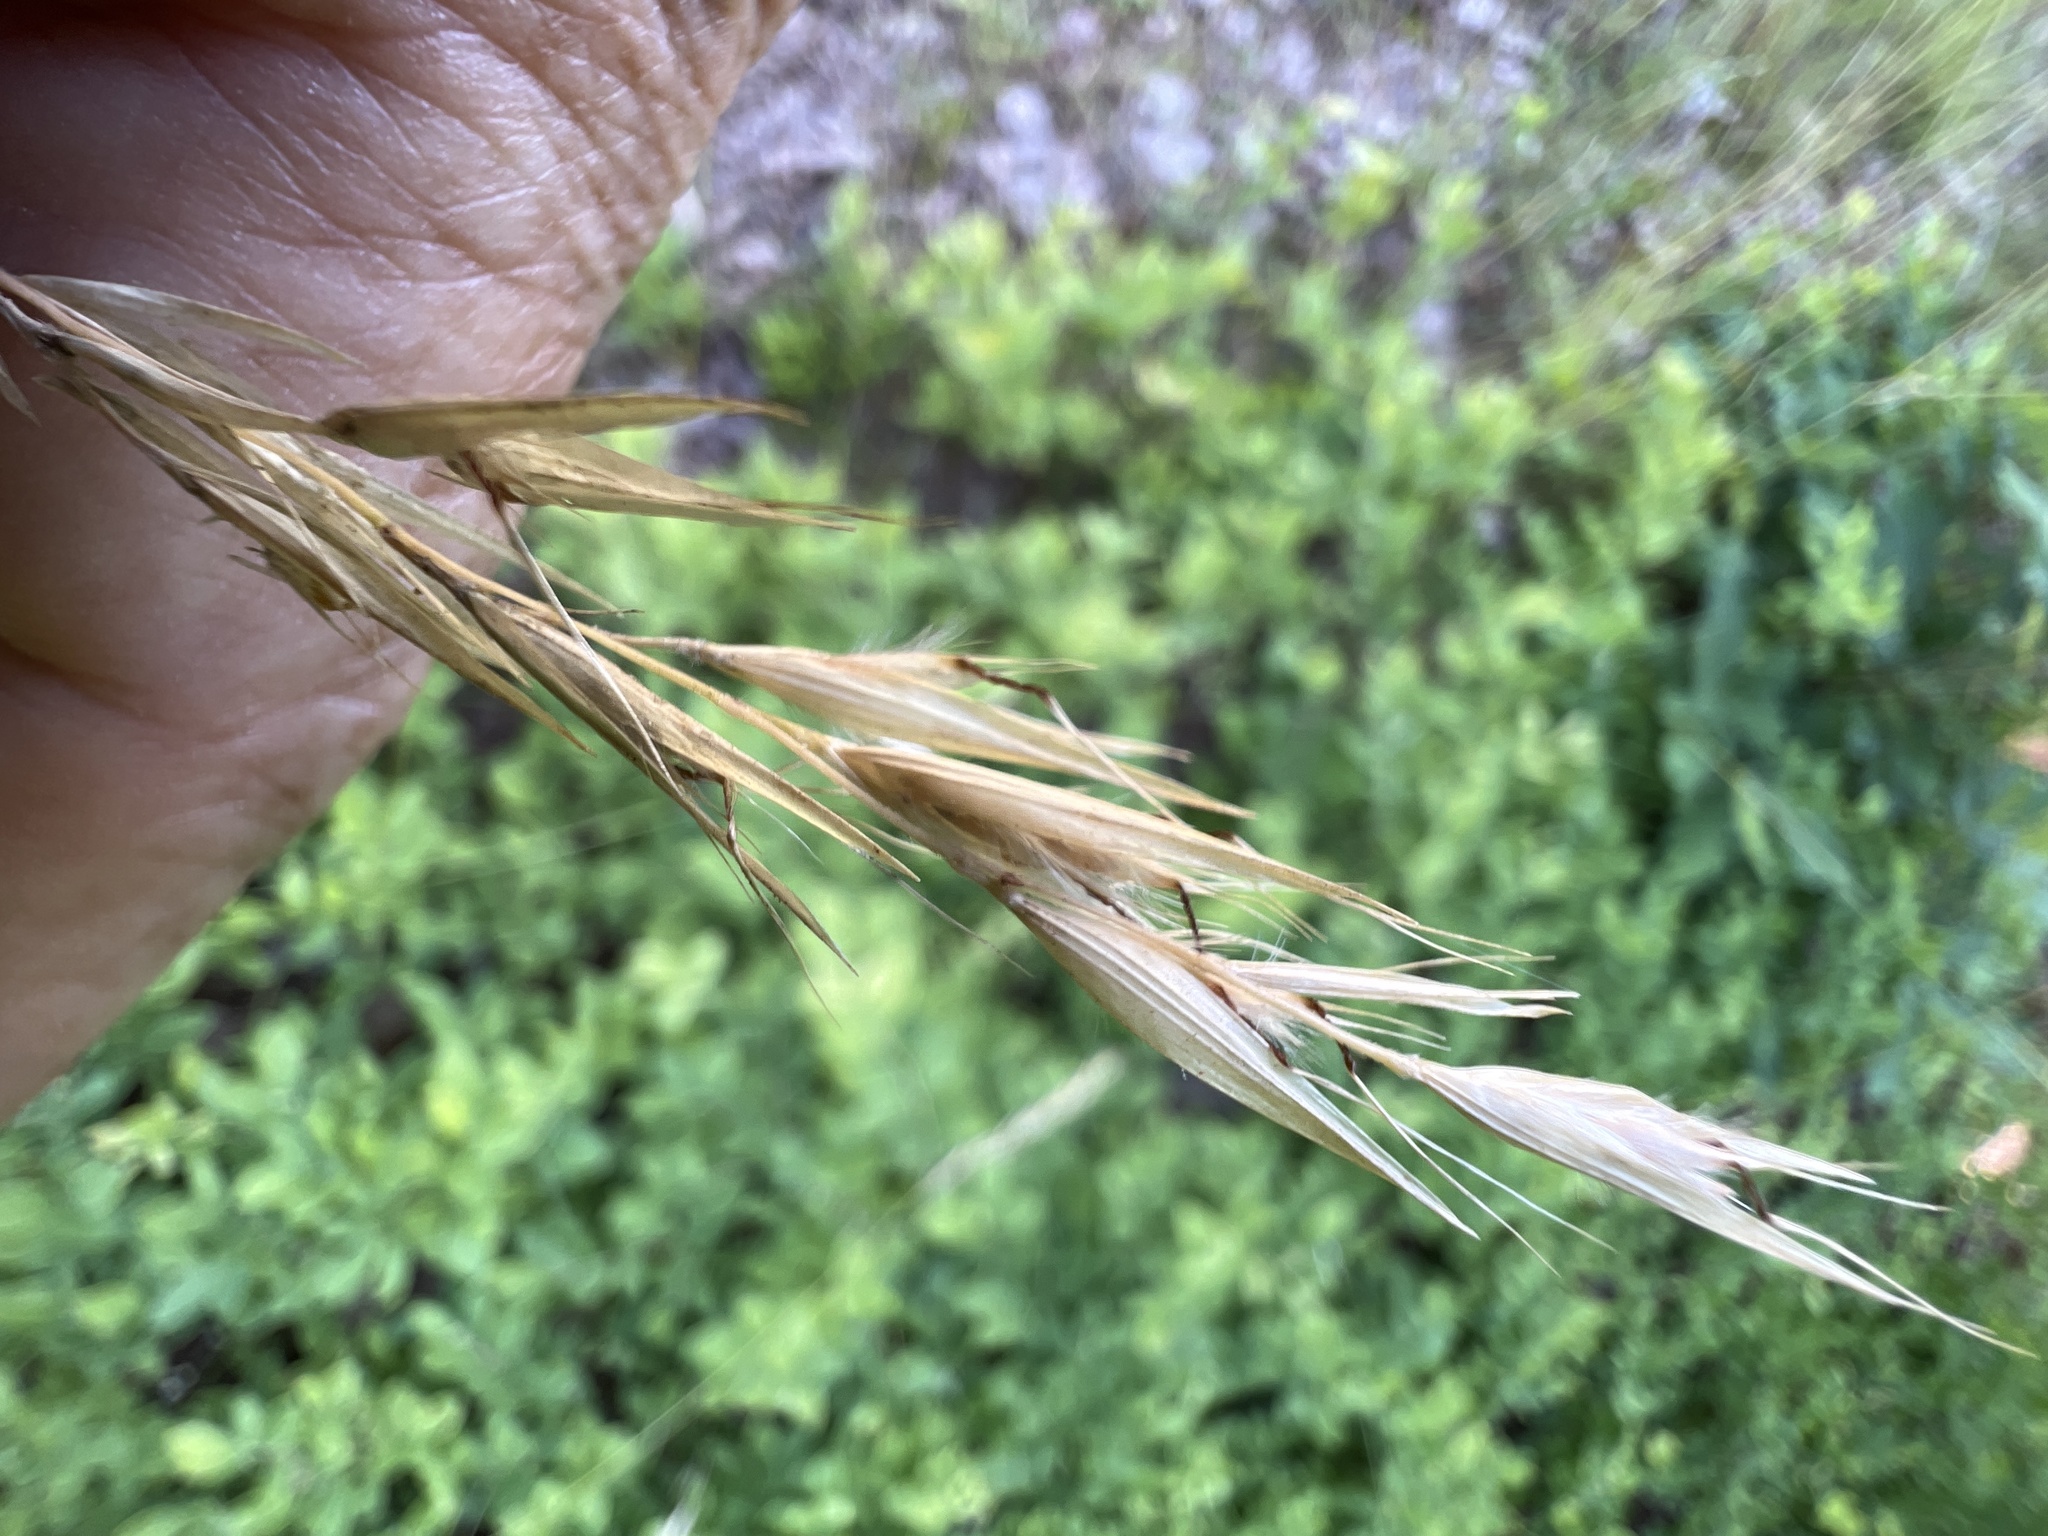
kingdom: Plantae
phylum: Tracheophyta
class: Liliopsida
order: Poales
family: Poaceae
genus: Danthonia
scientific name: Danthonia sericea
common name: Downy danthonia
